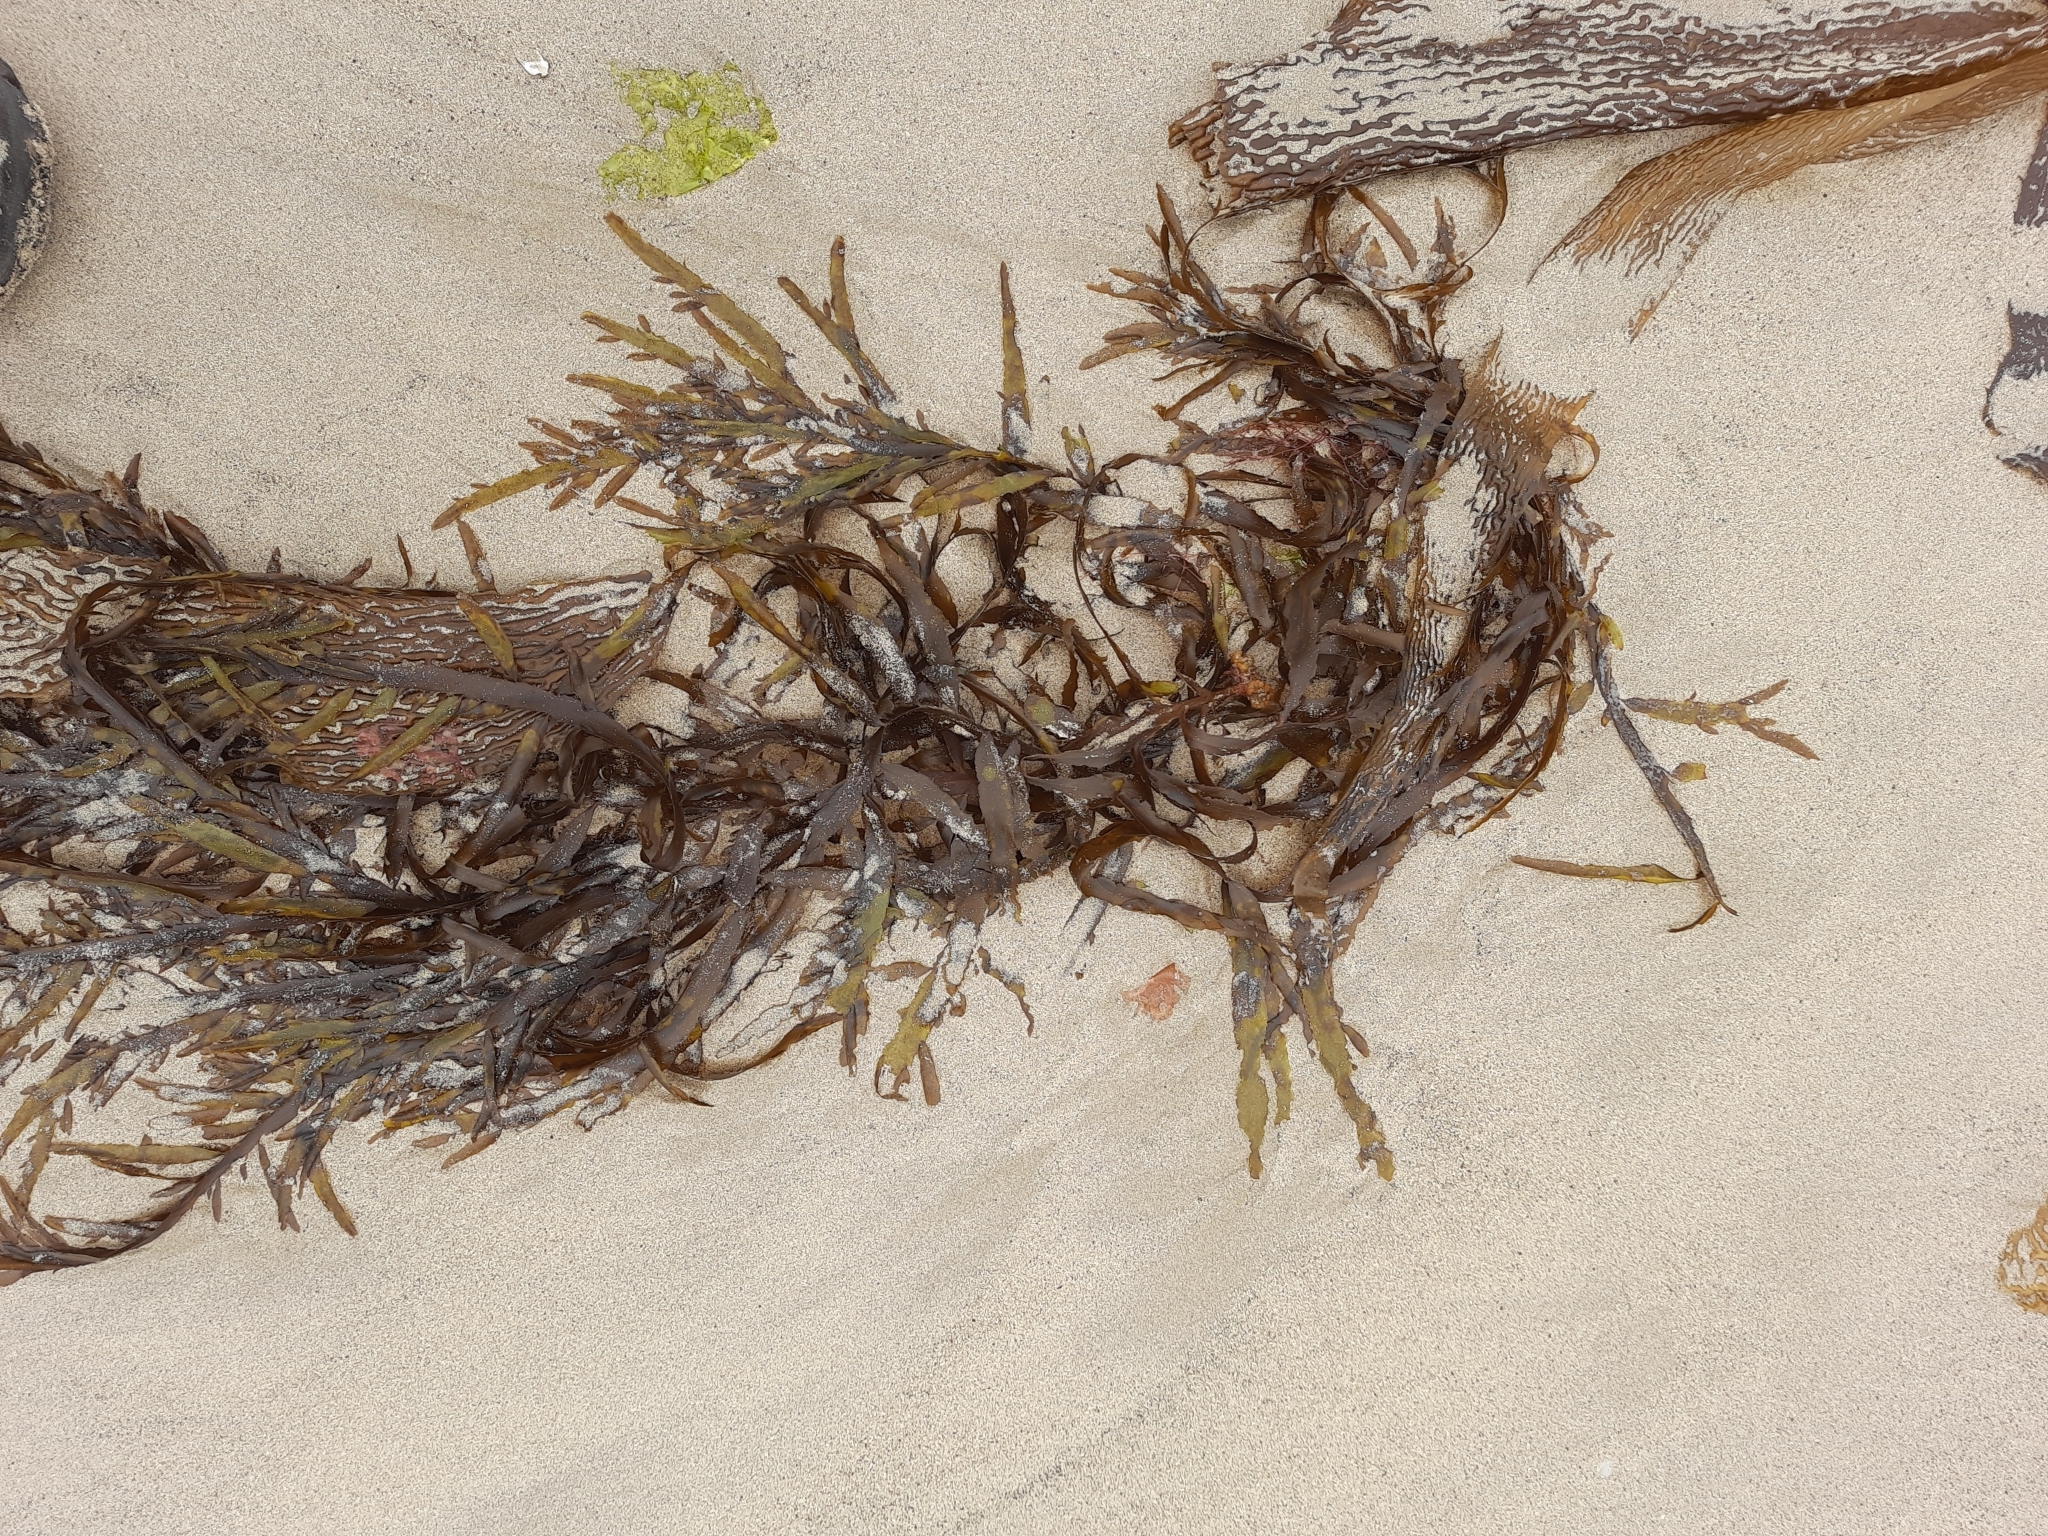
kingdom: Chromista
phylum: Ochrophyta
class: Phaeophyceae
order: Desmarestiales
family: Desmarestiaceae
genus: Desmarestia
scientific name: Desmarestia ligulata
